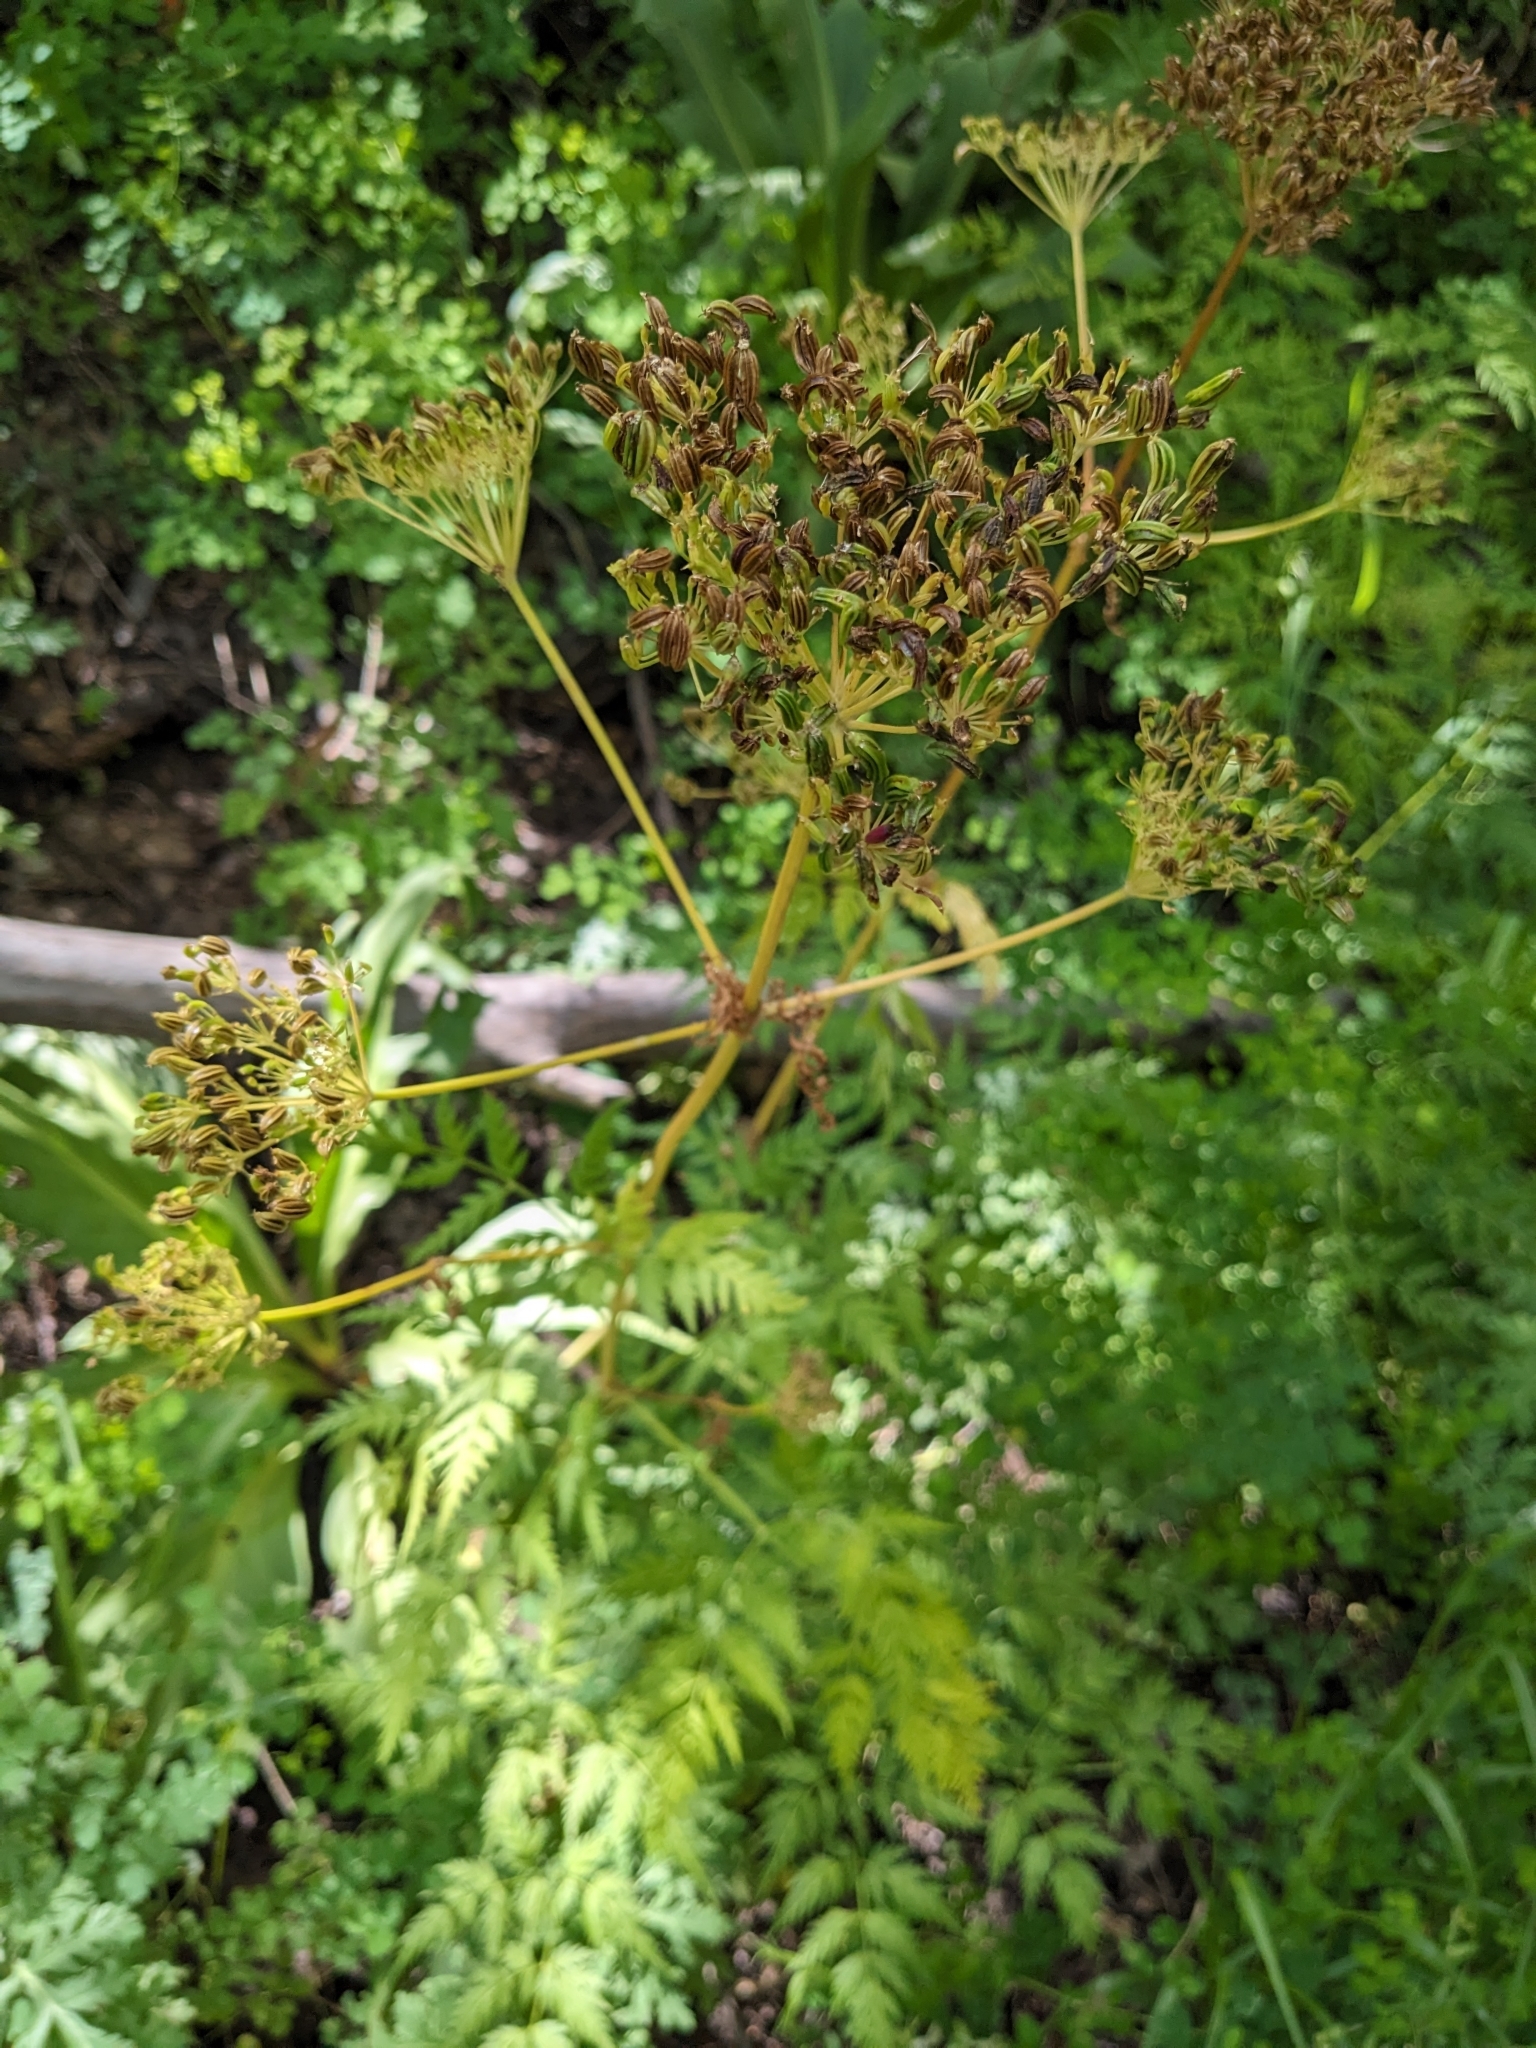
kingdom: Plantae
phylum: Tracheophyta
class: Magnoliopsida
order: Apiales
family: Apiaceae
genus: Conium
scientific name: Conium maculatum
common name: Hemlock
